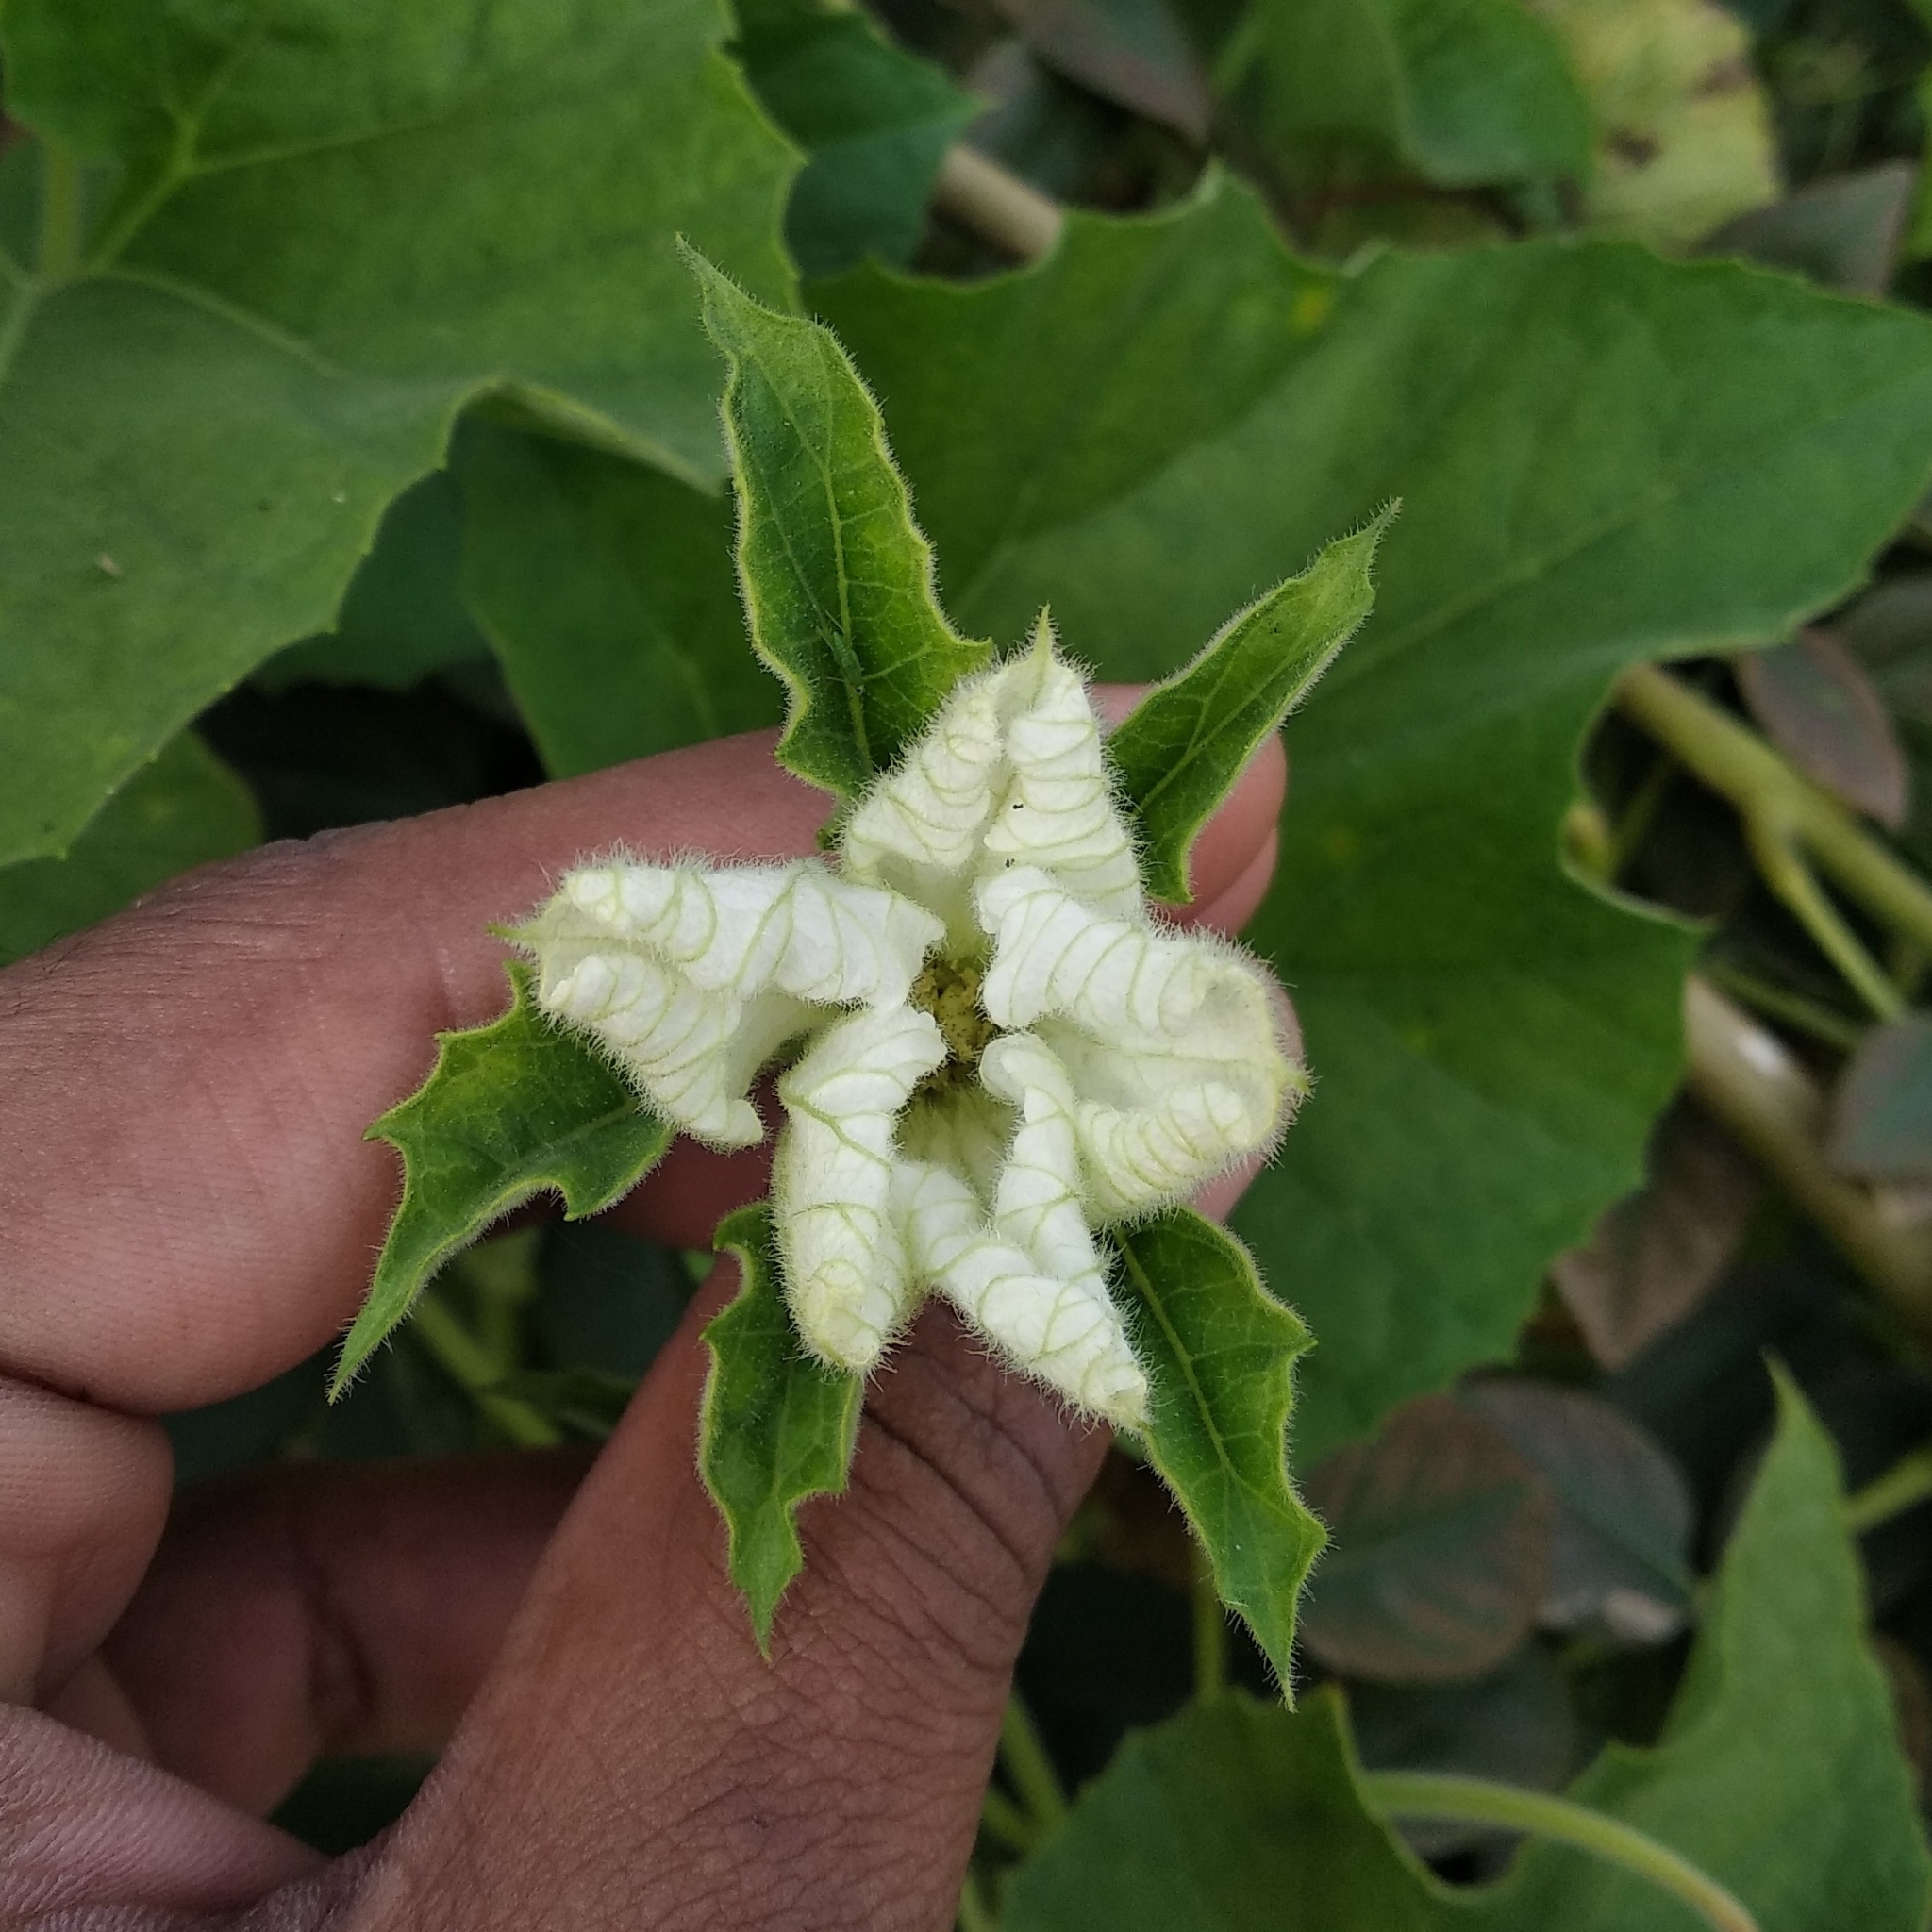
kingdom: Plantae
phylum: Tracheophyta
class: Magnoliopsida
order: Cucurbitales
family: Cucurbitaceae
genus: Lagenaria
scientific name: Lagenaria siceraria
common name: Bottle gourd
